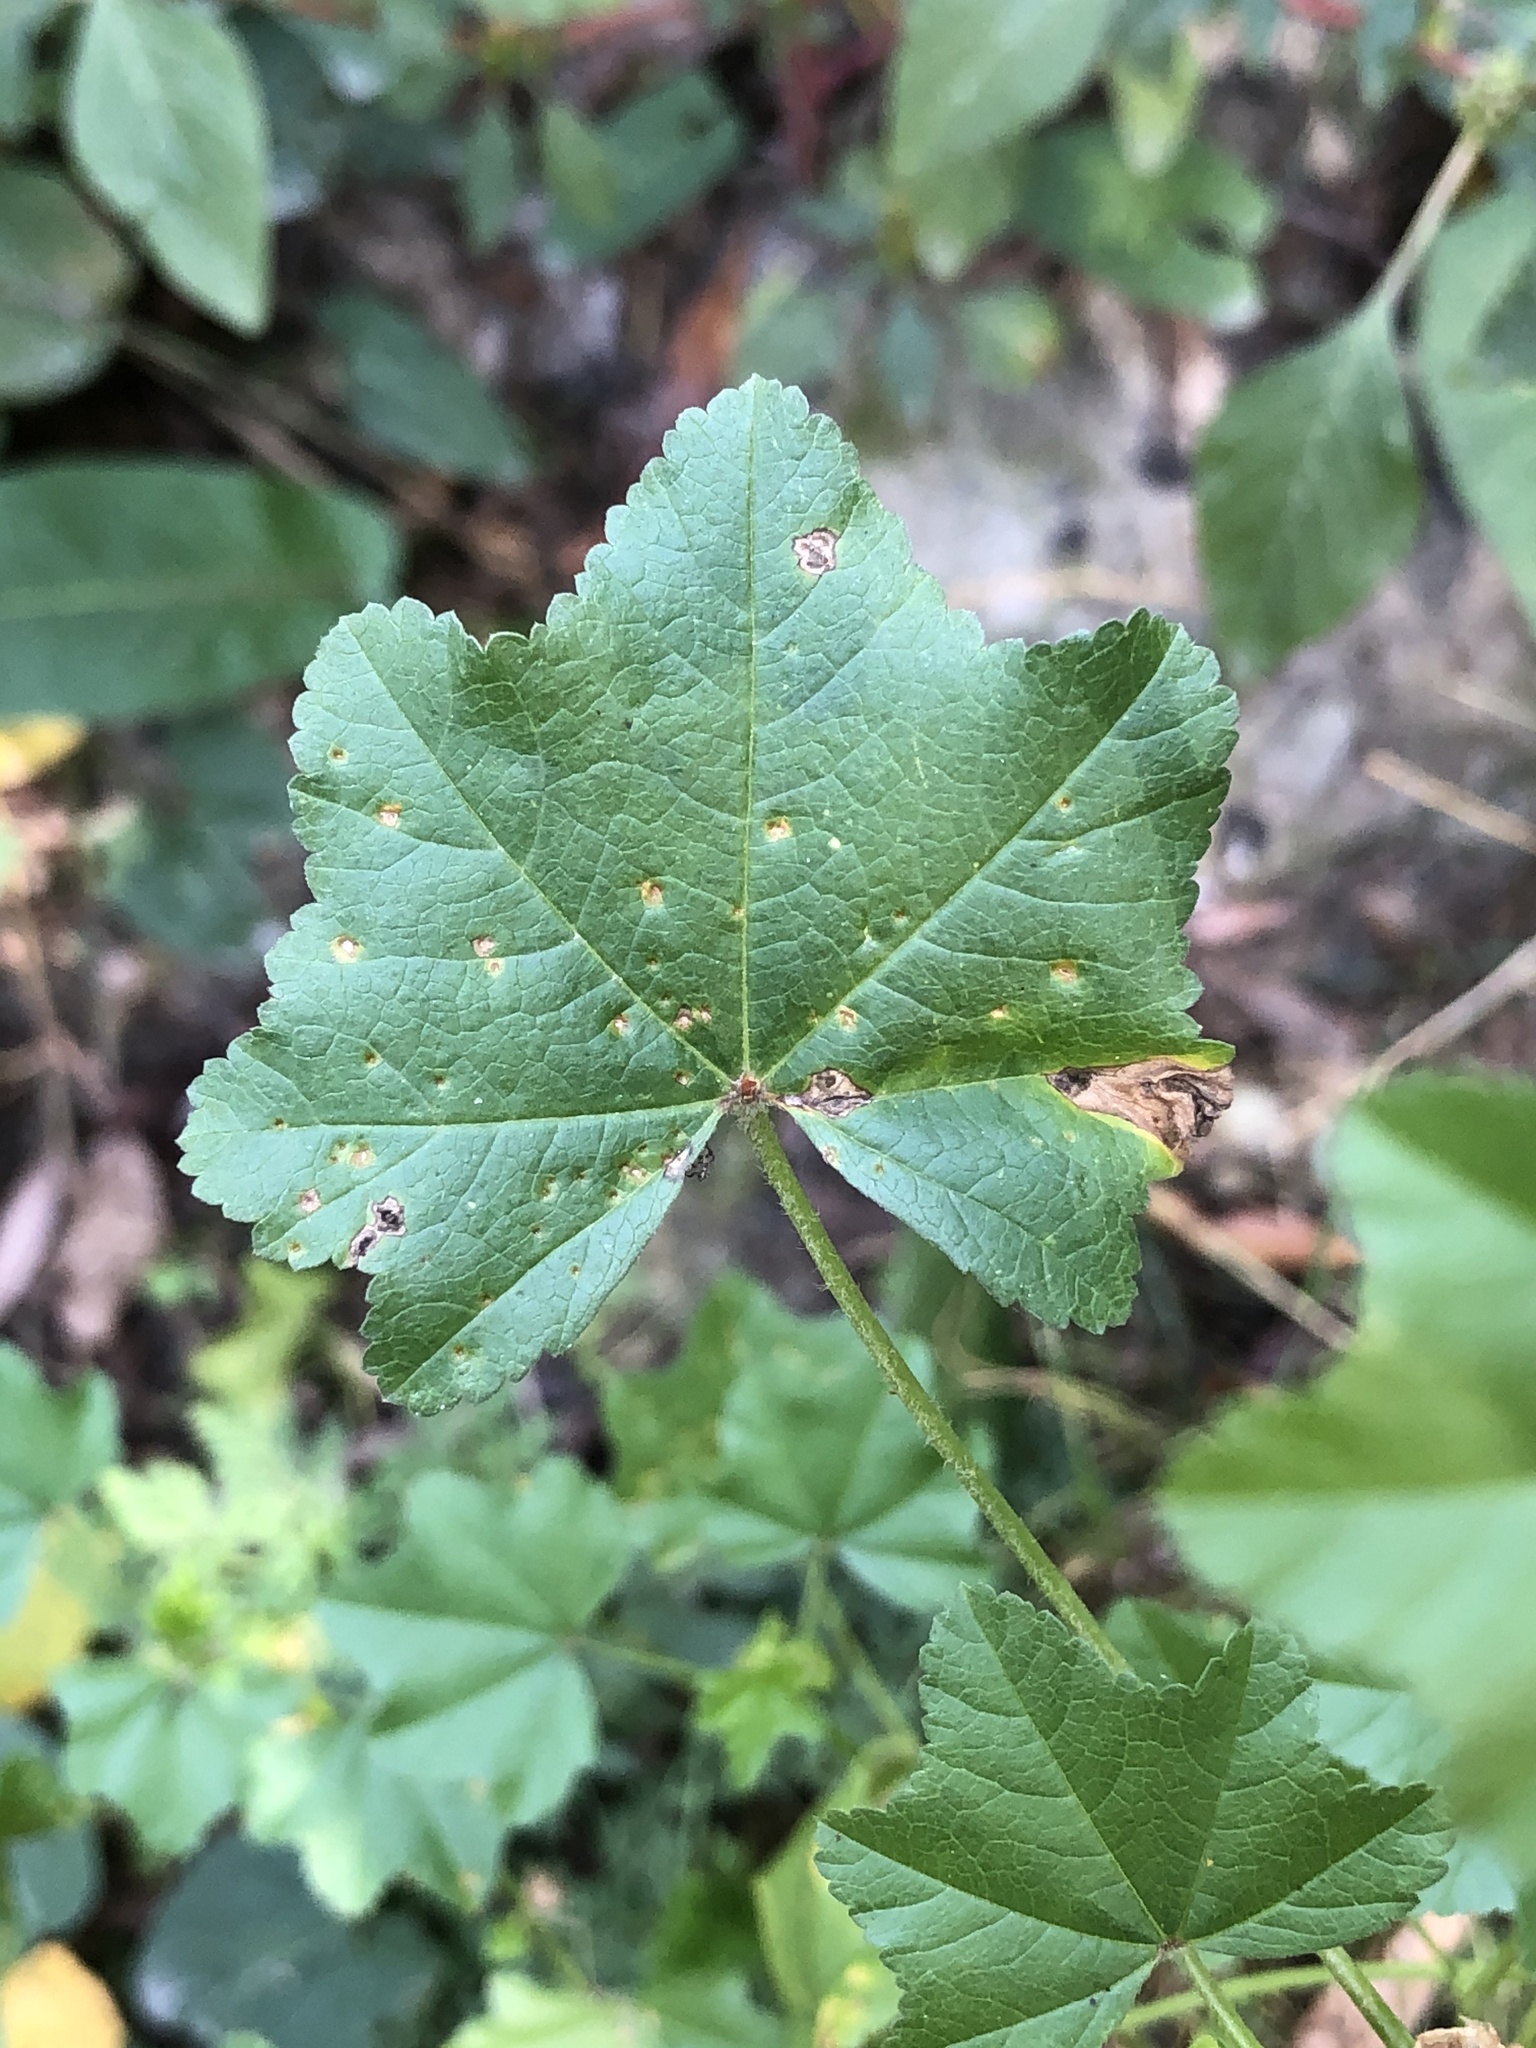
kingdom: Fungi
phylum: Basidiomycota
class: Pucciniomycetes
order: Pucciniales
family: Pucciniaceae
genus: Puccinia
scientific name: Puccinia malvacearum
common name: Hollyhock rust
